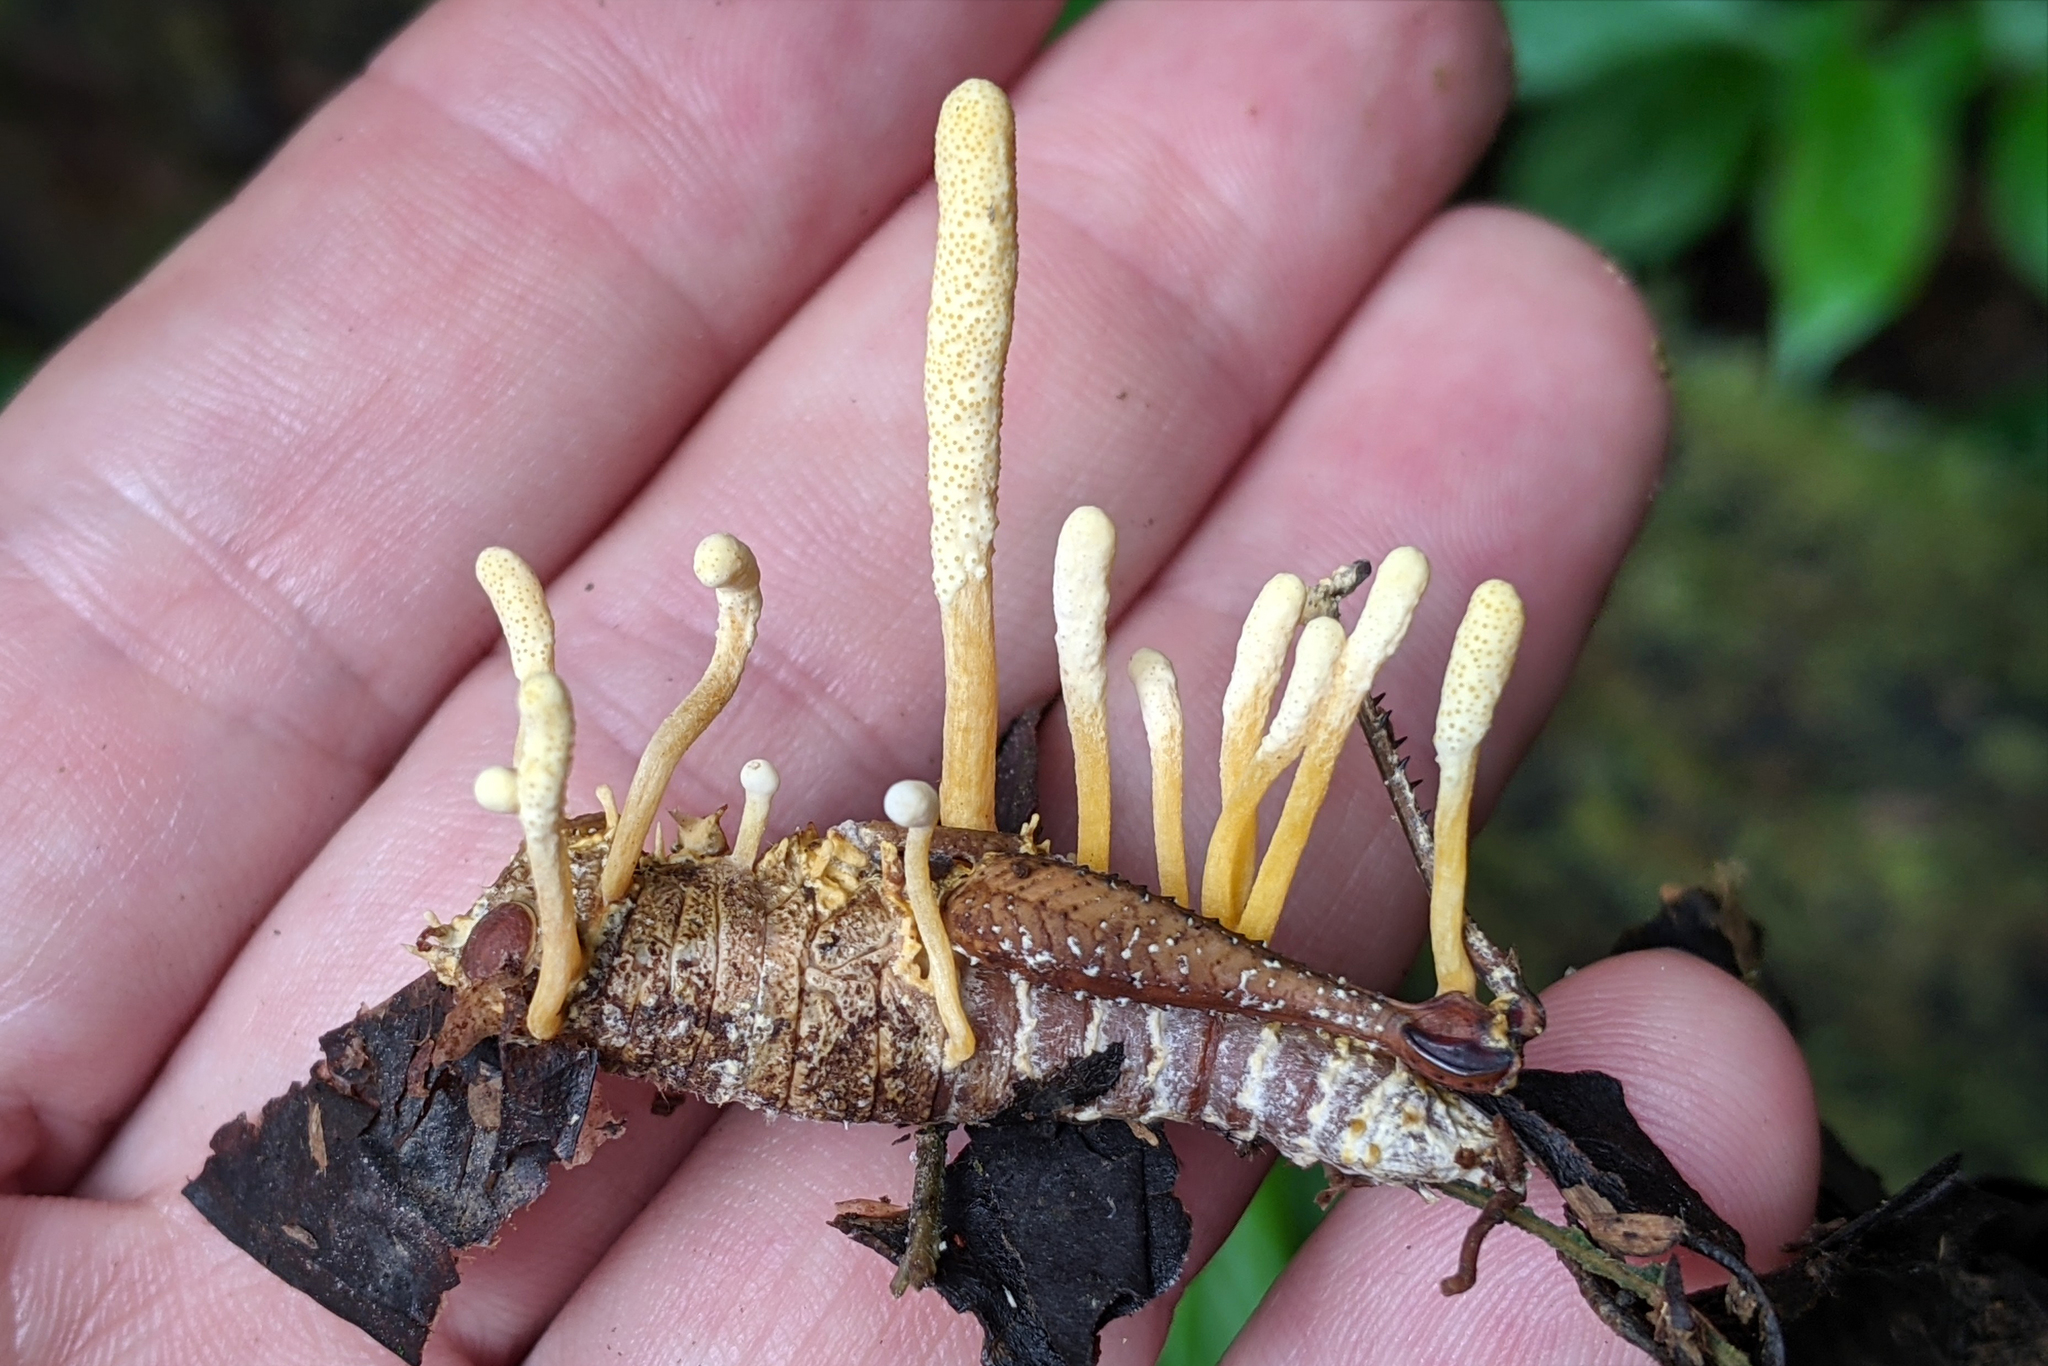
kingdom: Fungi
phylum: Ascomycota
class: Sordariomycetes
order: Hypocreales
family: Cordycipitaceae
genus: Beauveria
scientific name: Beauveria acridophila
